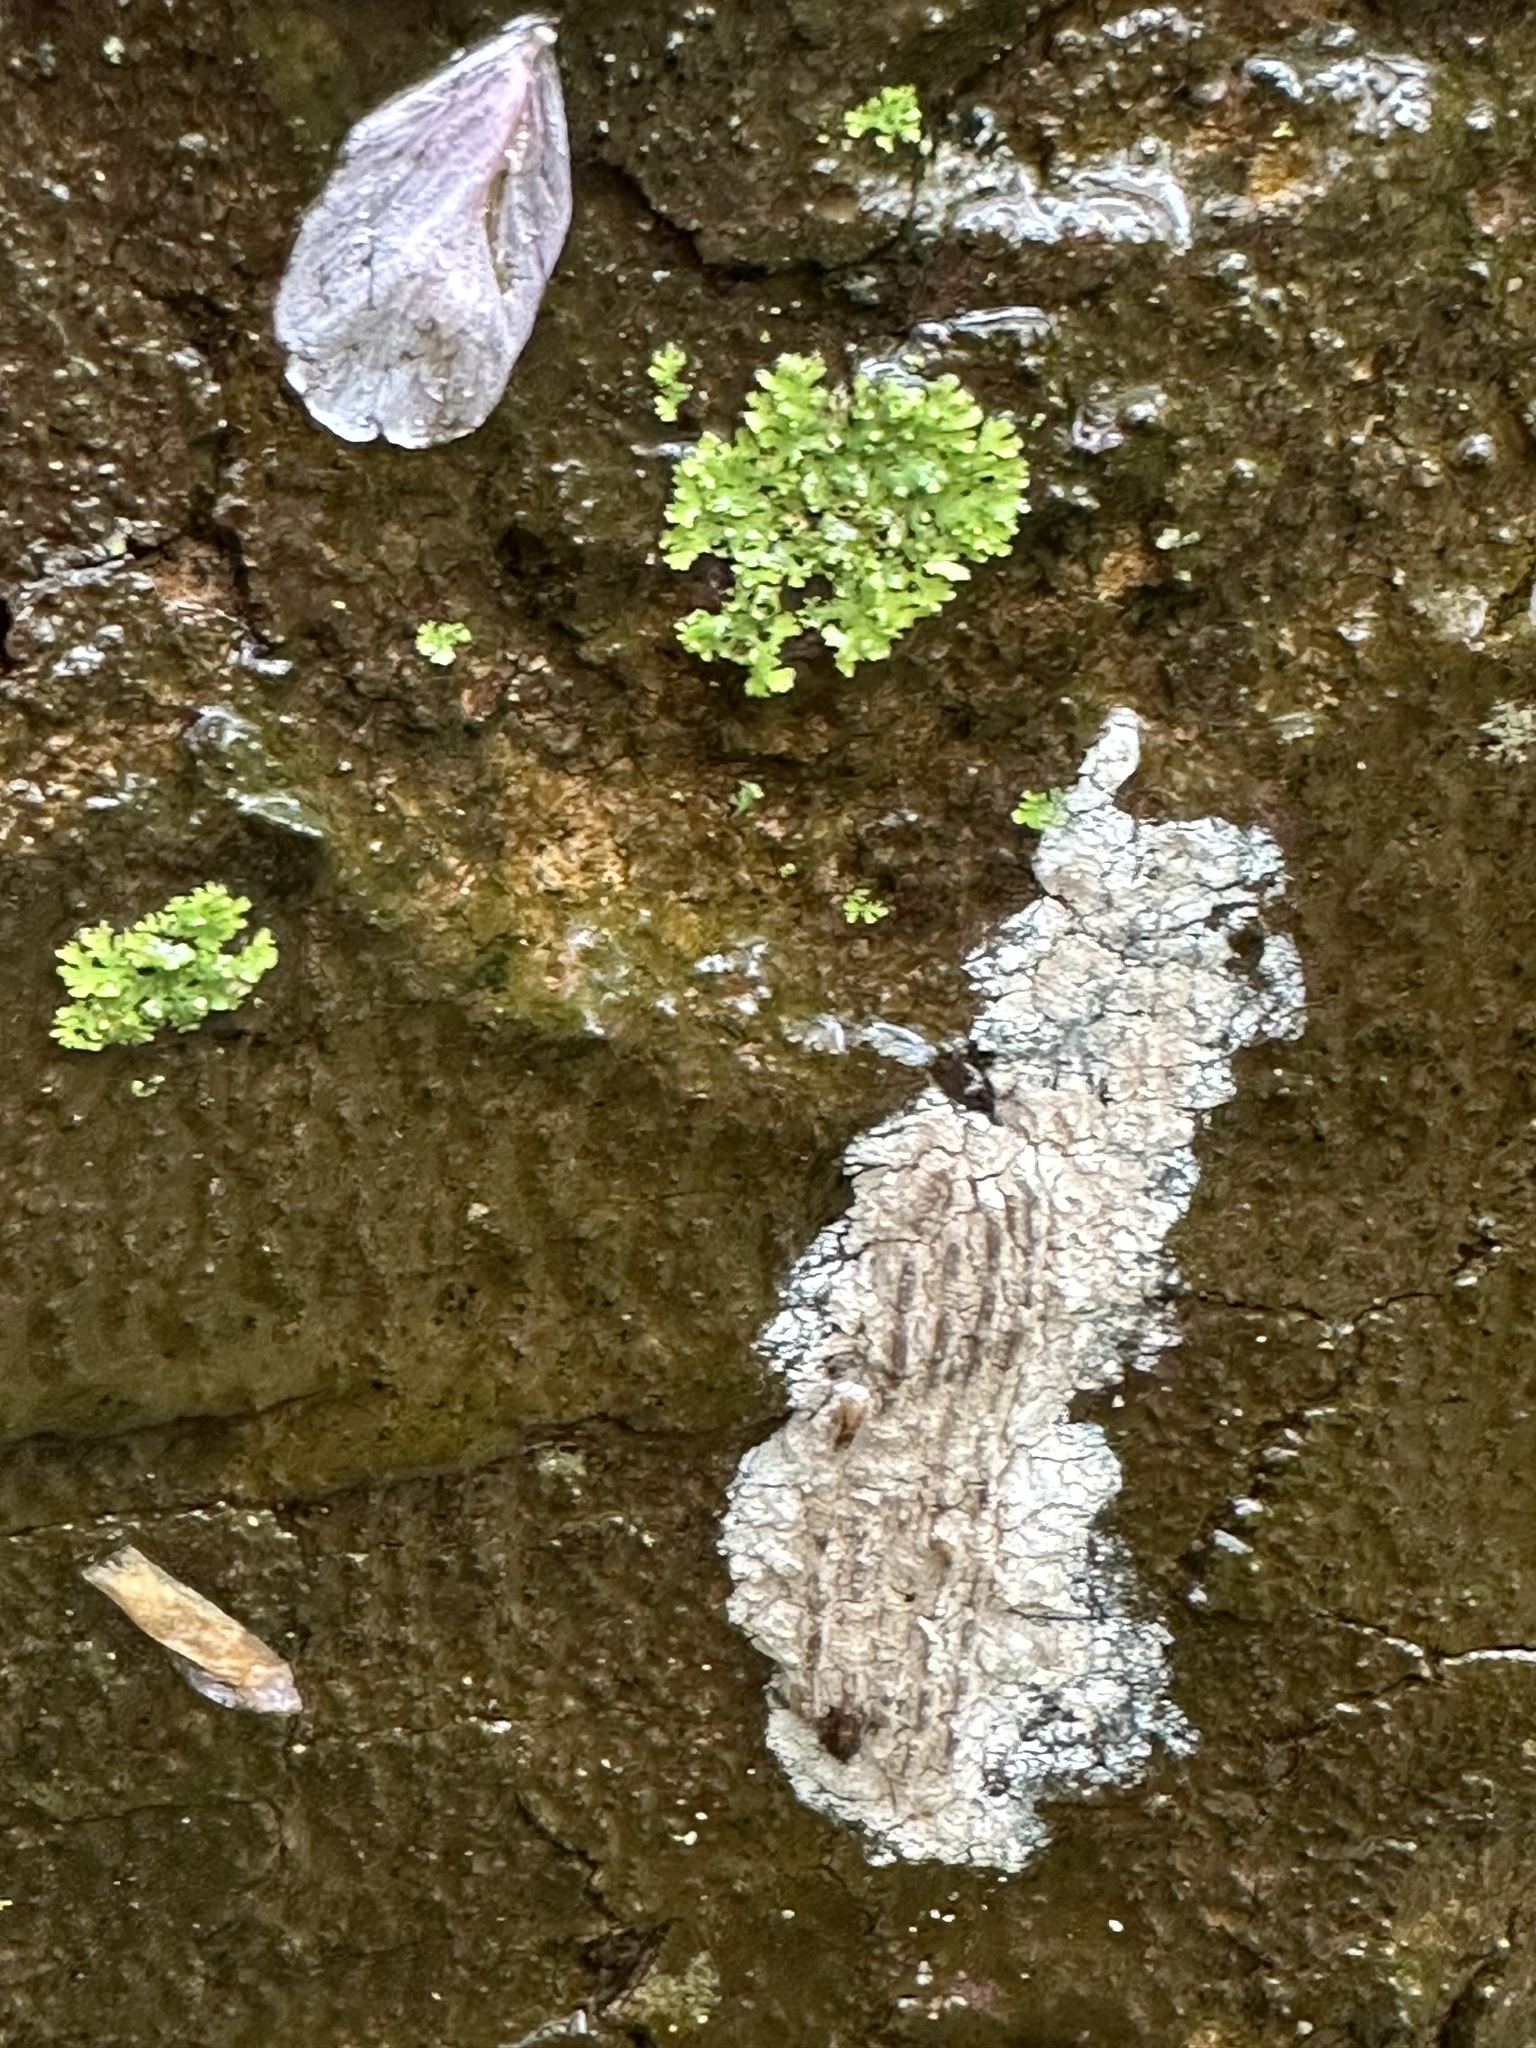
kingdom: Animalia
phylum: Arthropoda
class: Insecta
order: Hemiptera
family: Fulgoridae
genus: Lycorma
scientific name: Lycorma delicatula
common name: Spotted lanternfly
